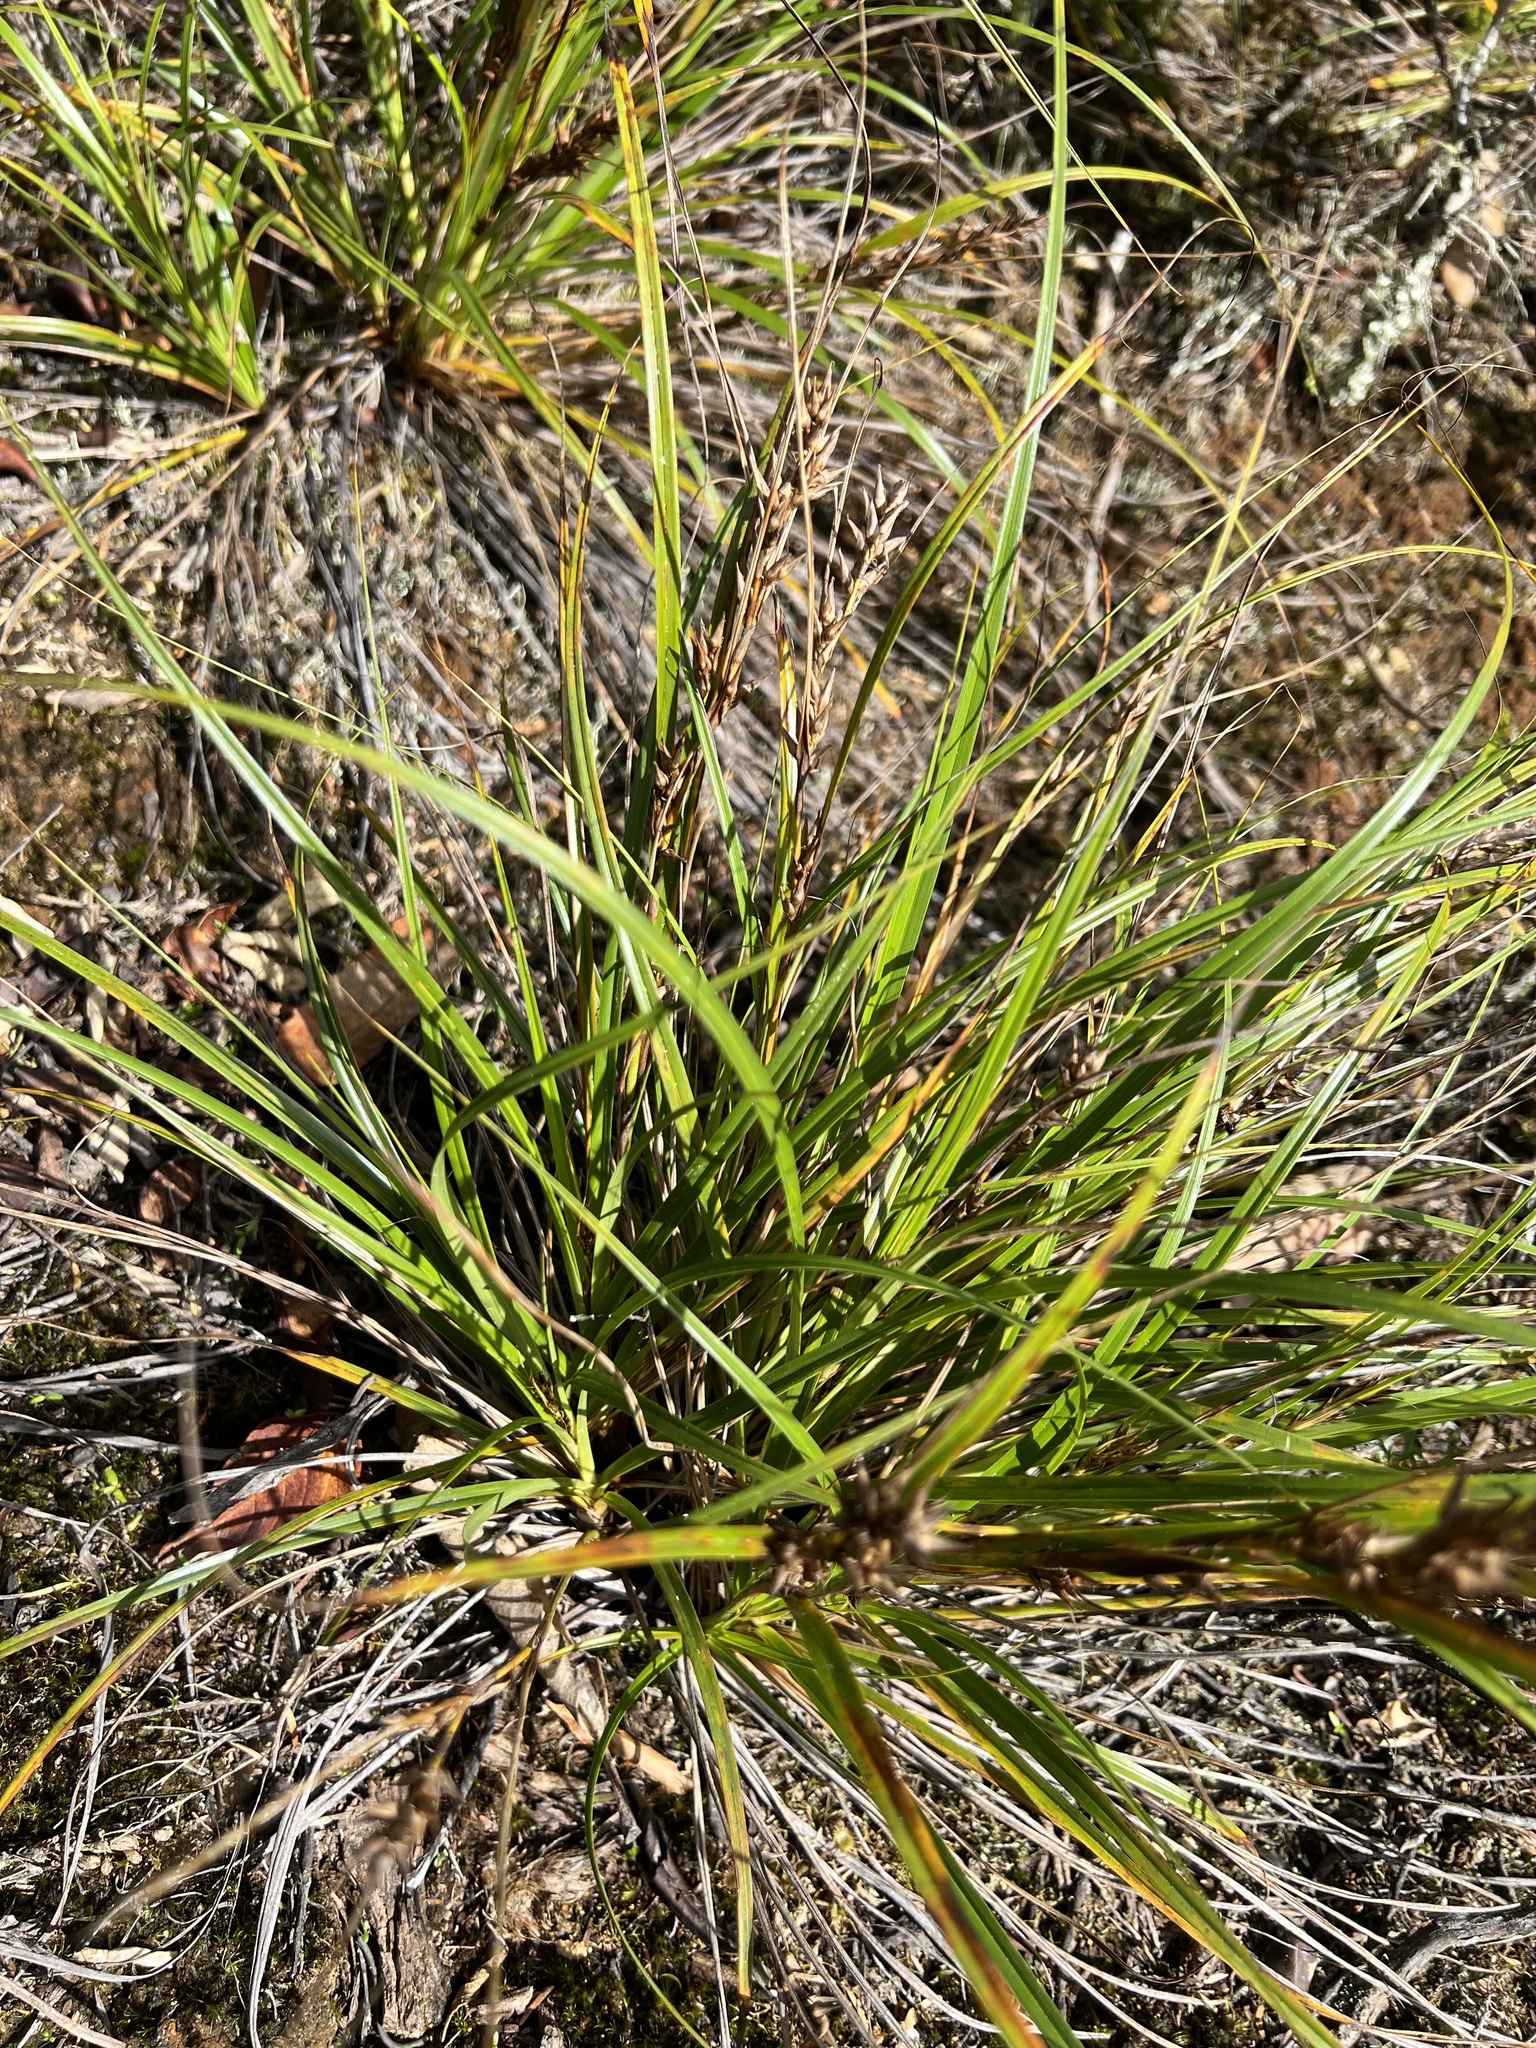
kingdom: Plantae
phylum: Tracheophyta
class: Liliopsida
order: Poales
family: Cyperaceae
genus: Morelotia
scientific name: Morelotia affinis
